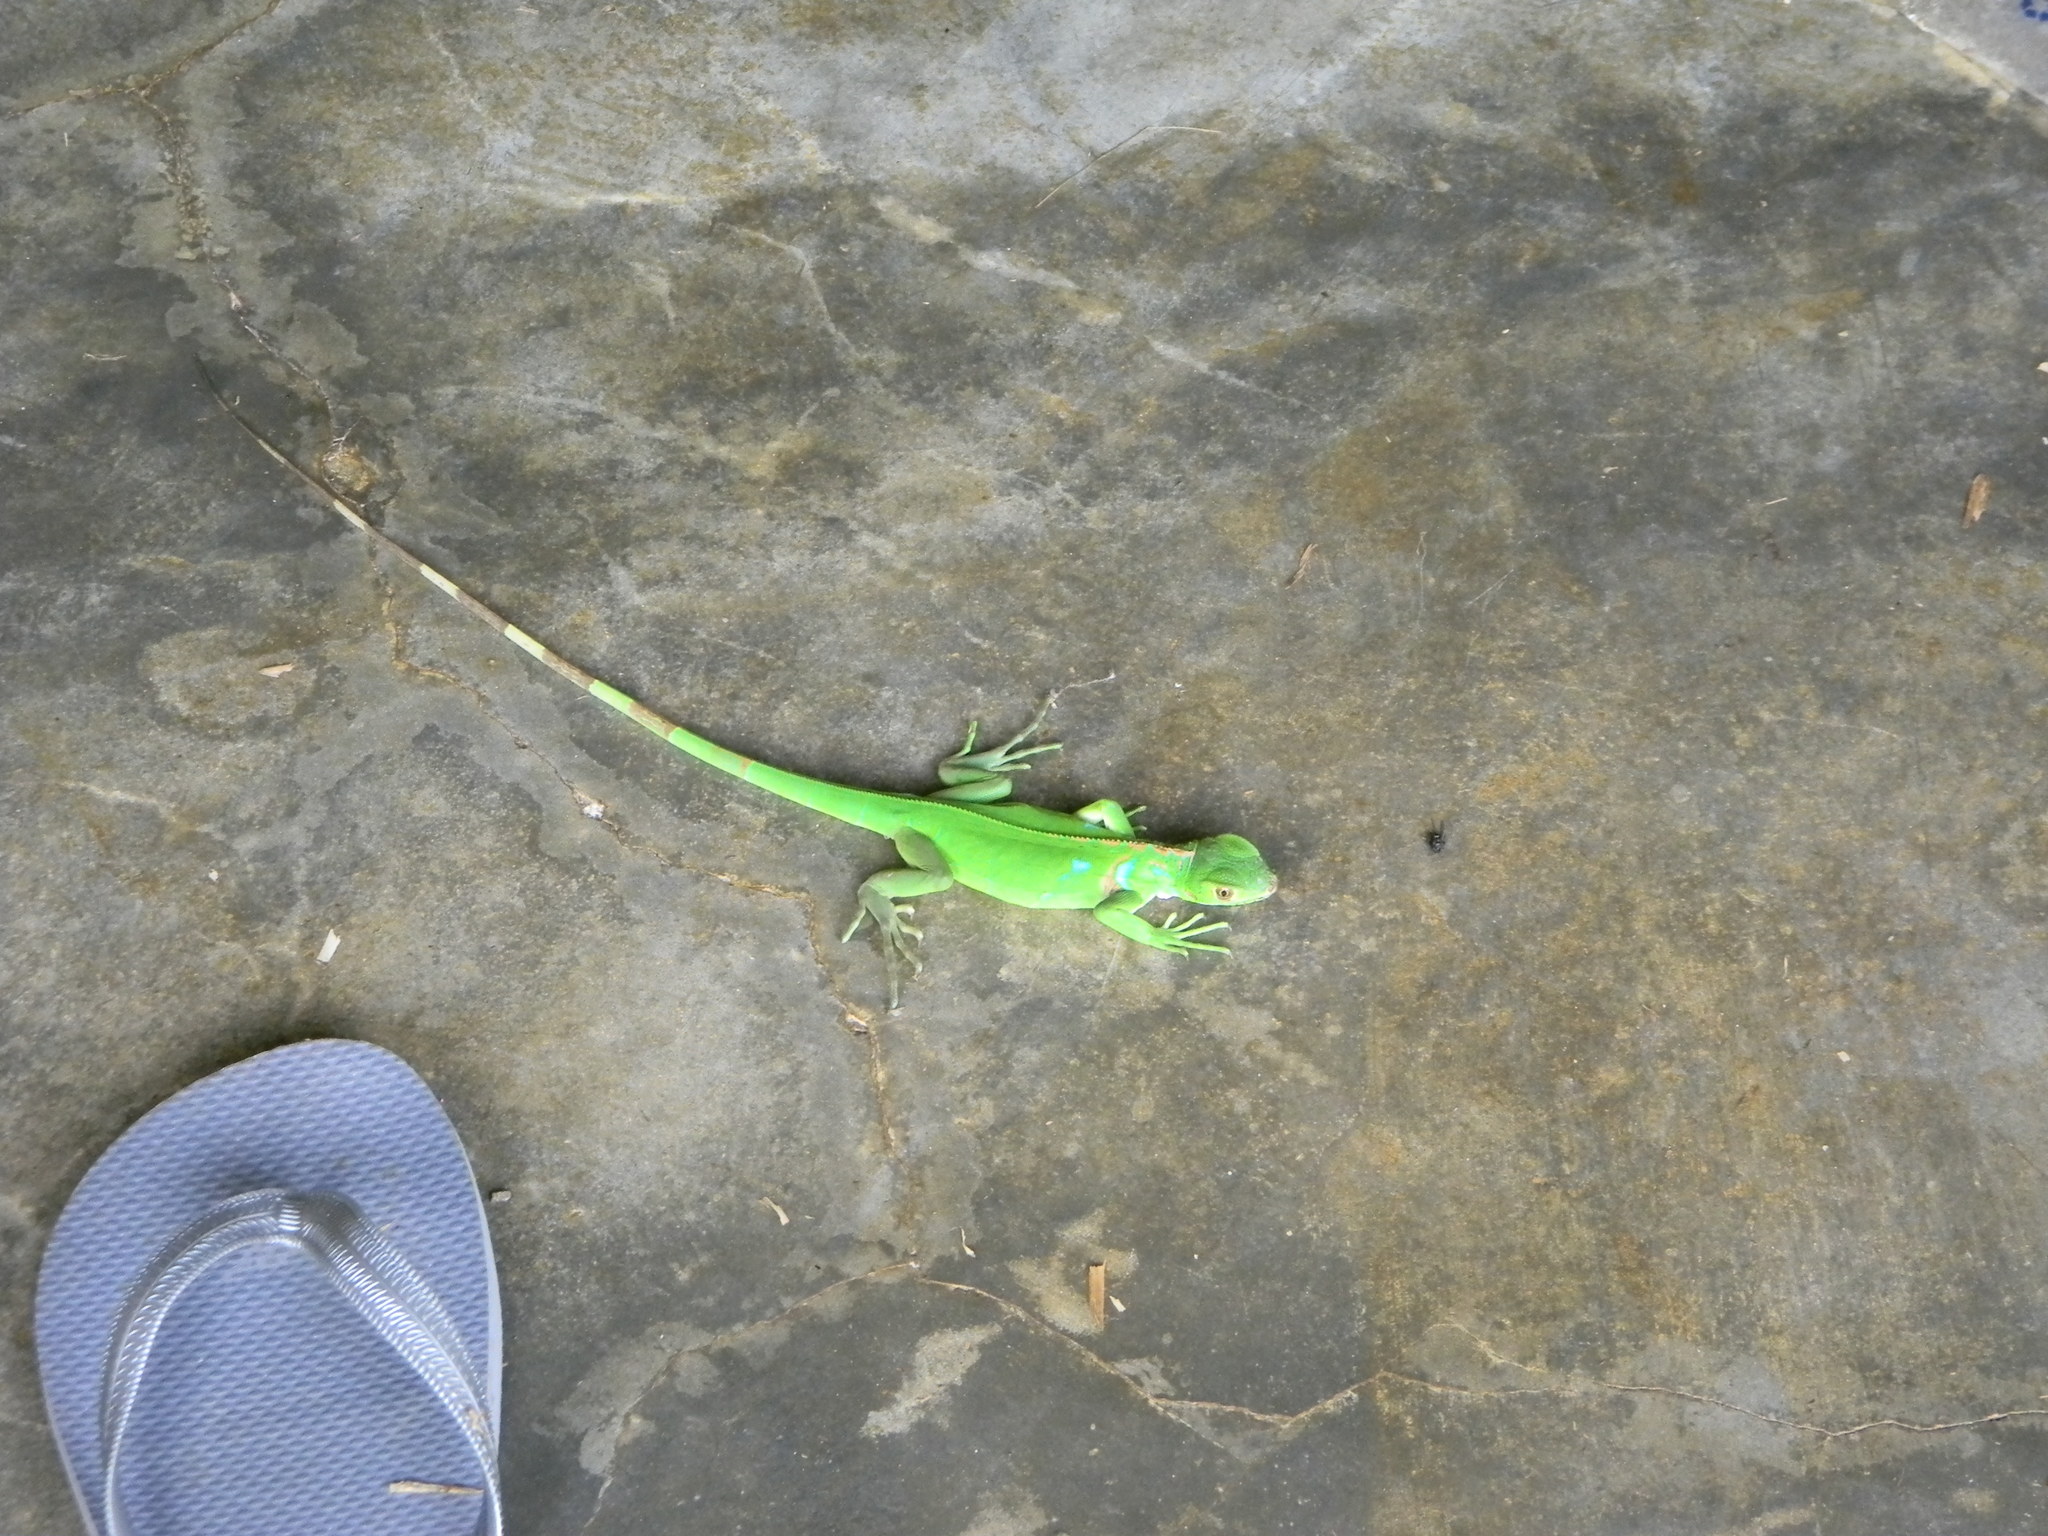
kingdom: Animalia
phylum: Chordata
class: Squamata
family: Iguanidae
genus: Iguana
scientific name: Iguana iguana
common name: Green iguana
